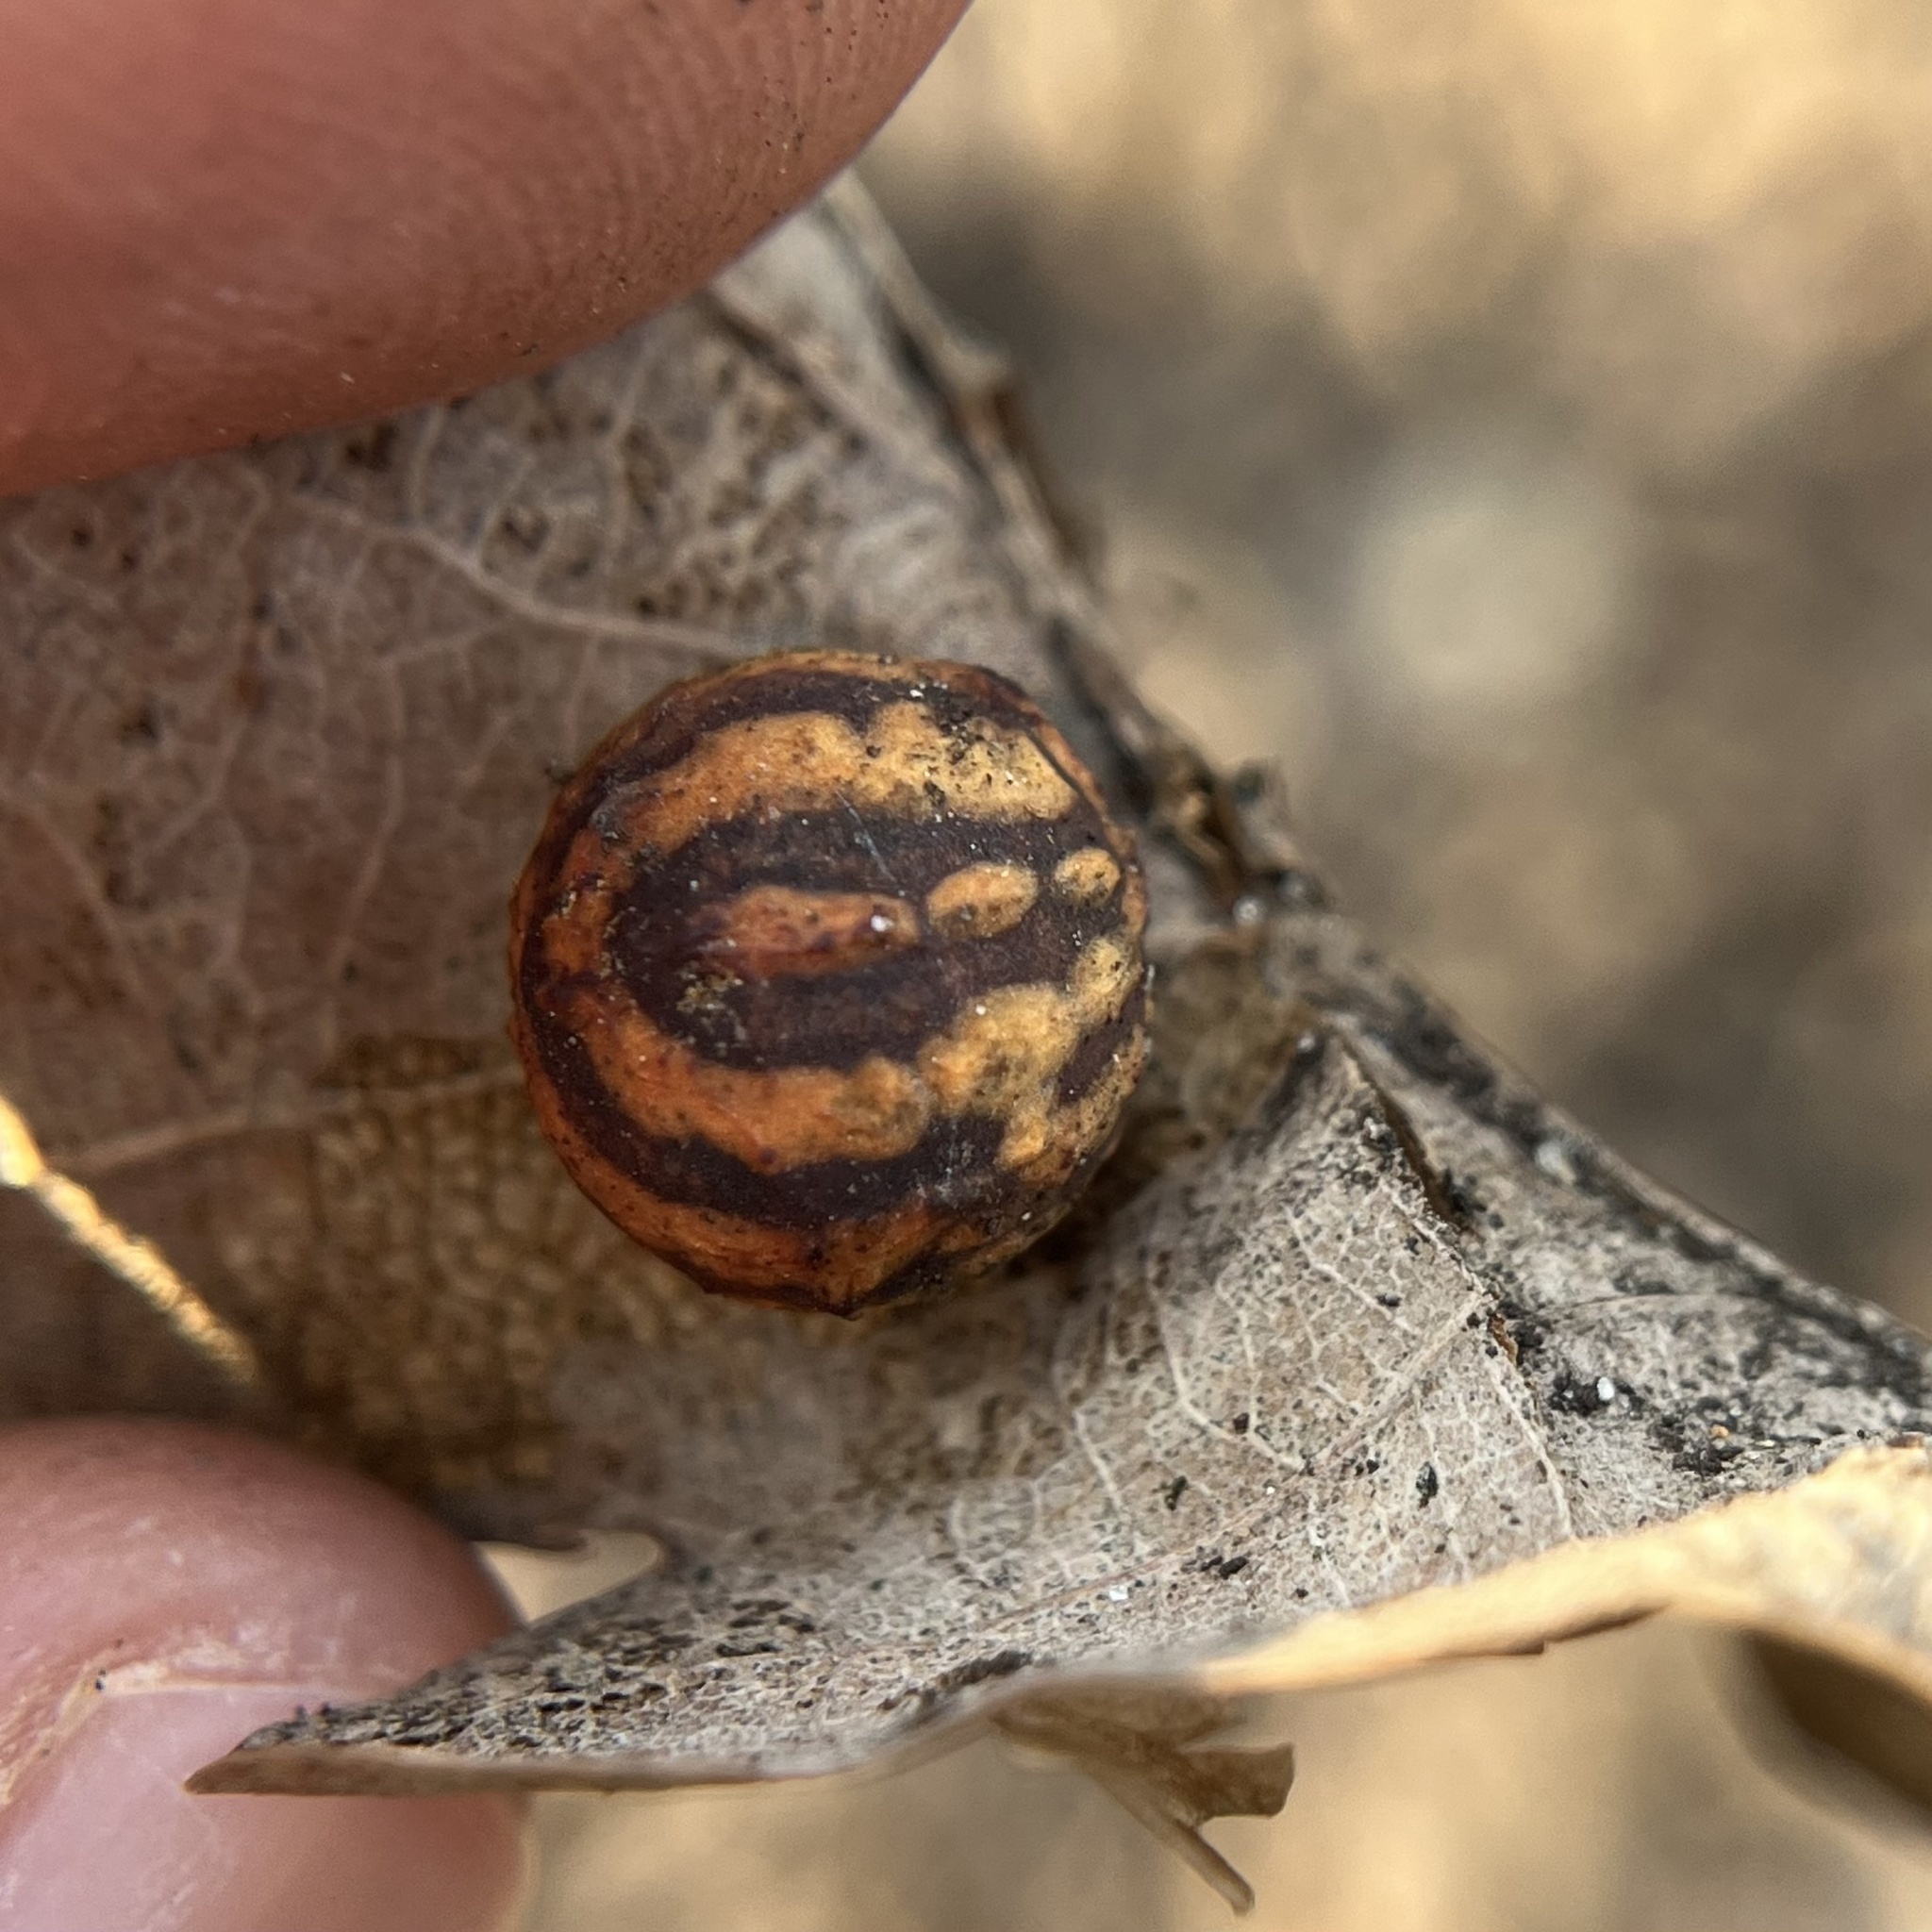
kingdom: Animalia
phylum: Arthropoda
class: Insecta
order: Hymenoptera
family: Cynipidae
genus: Cynips
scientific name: Cynips longiventris
